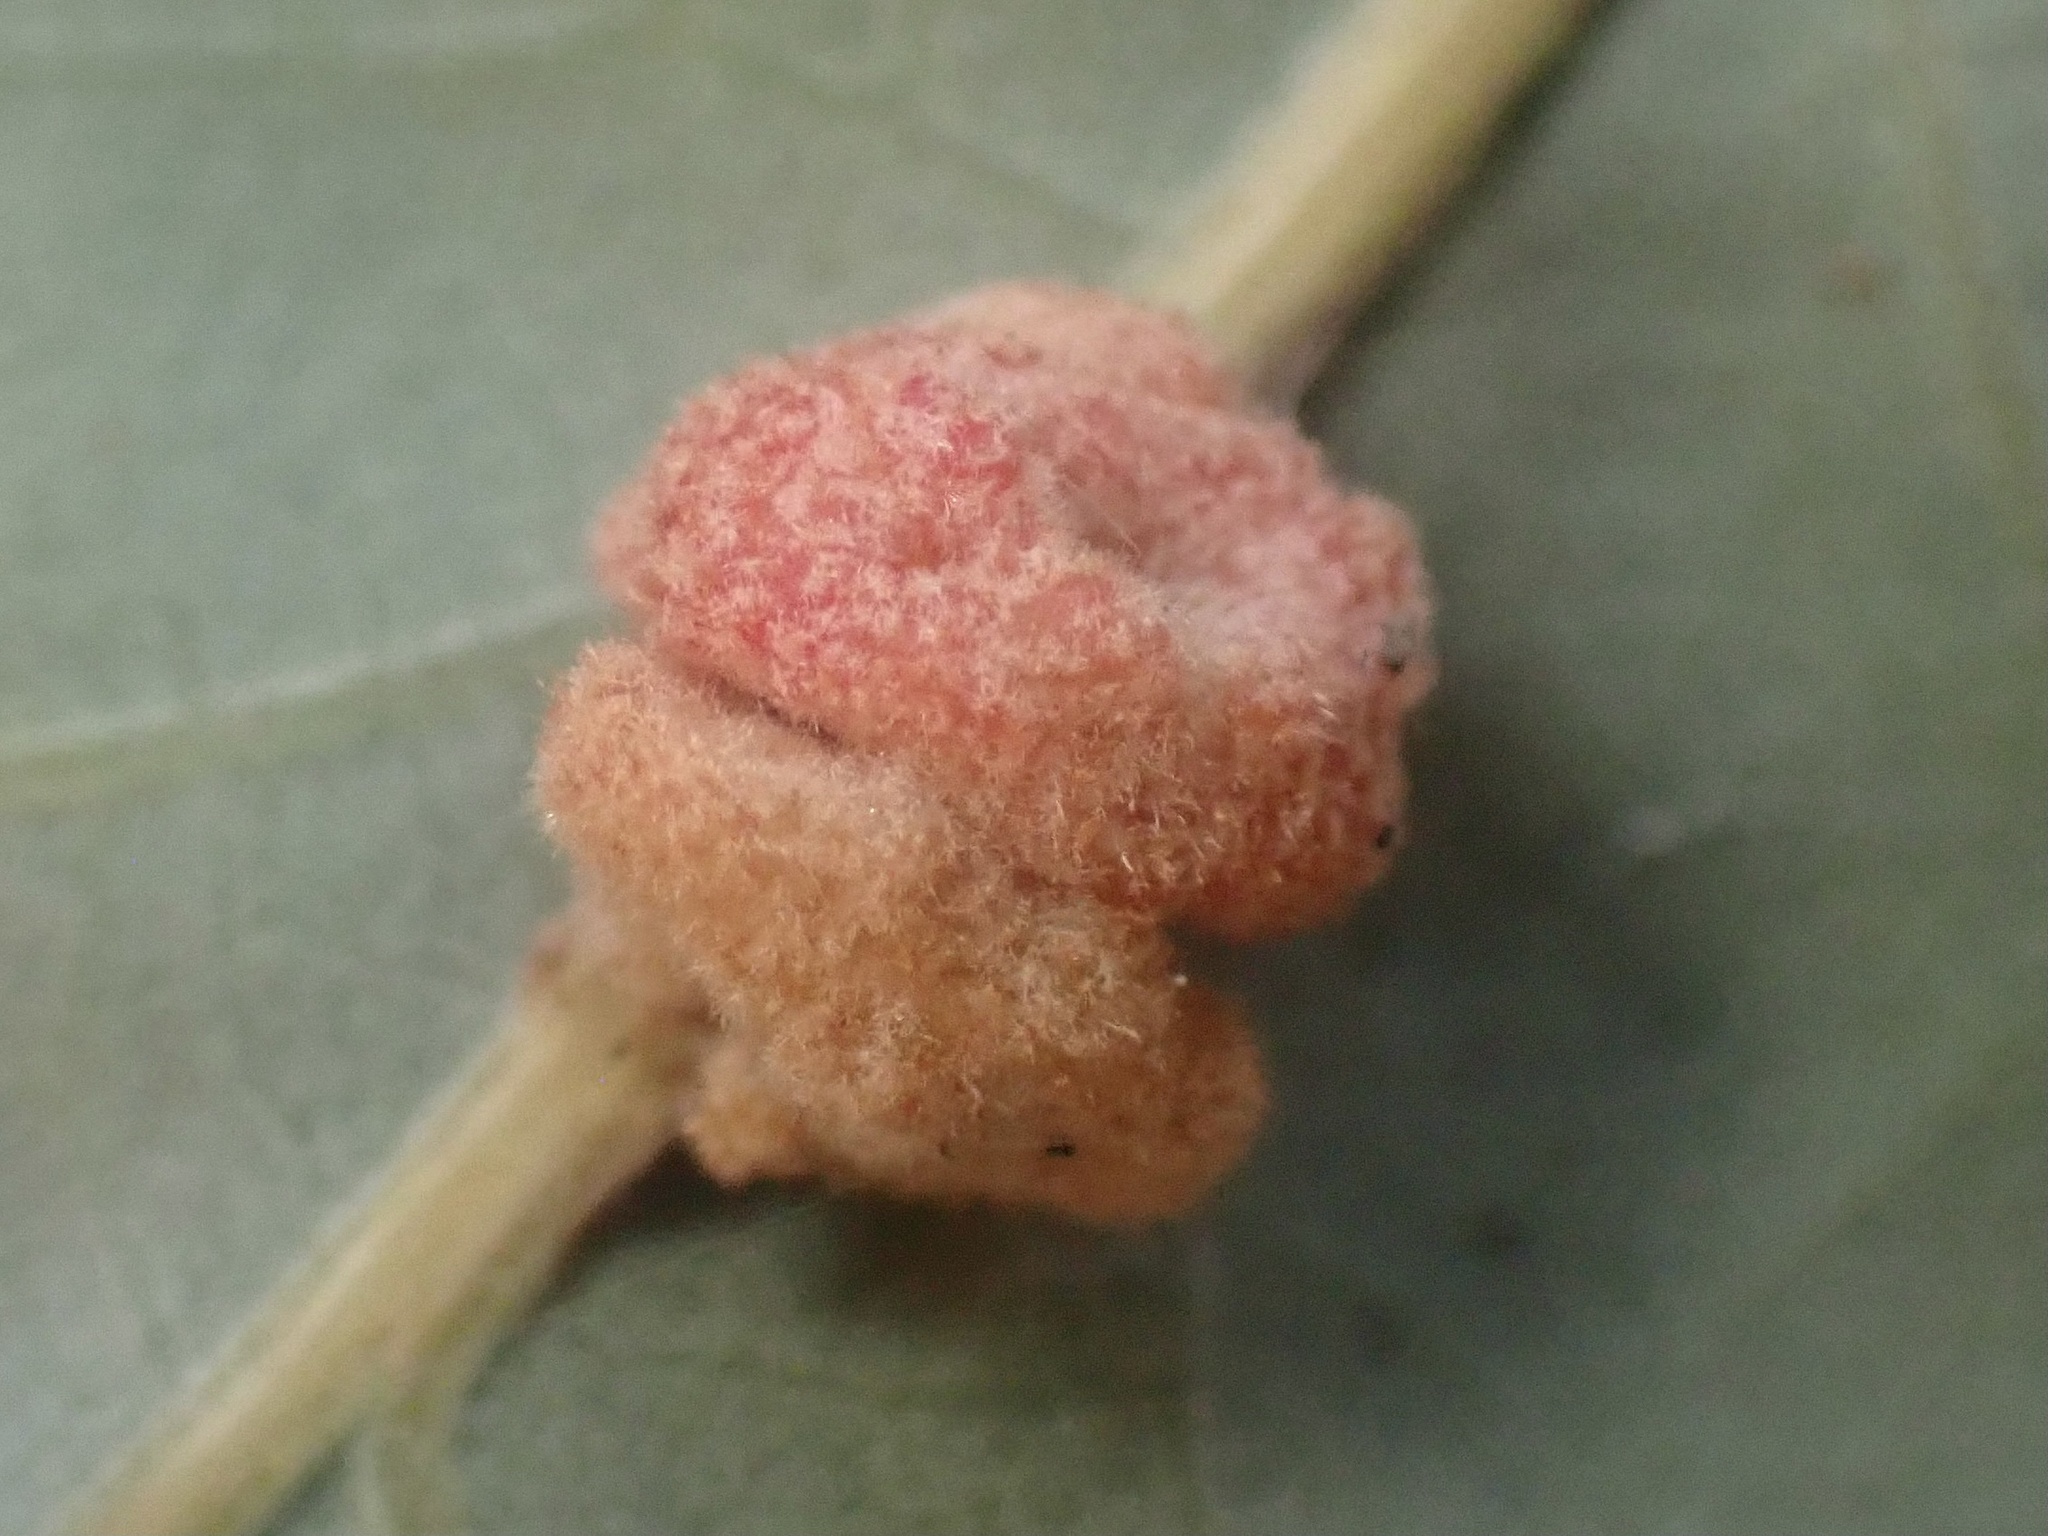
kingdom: Animalia
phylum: Arthropoda
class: Insecta
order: Hymenoptera
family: Cynipidae
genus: Andricus
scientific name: Andricus
